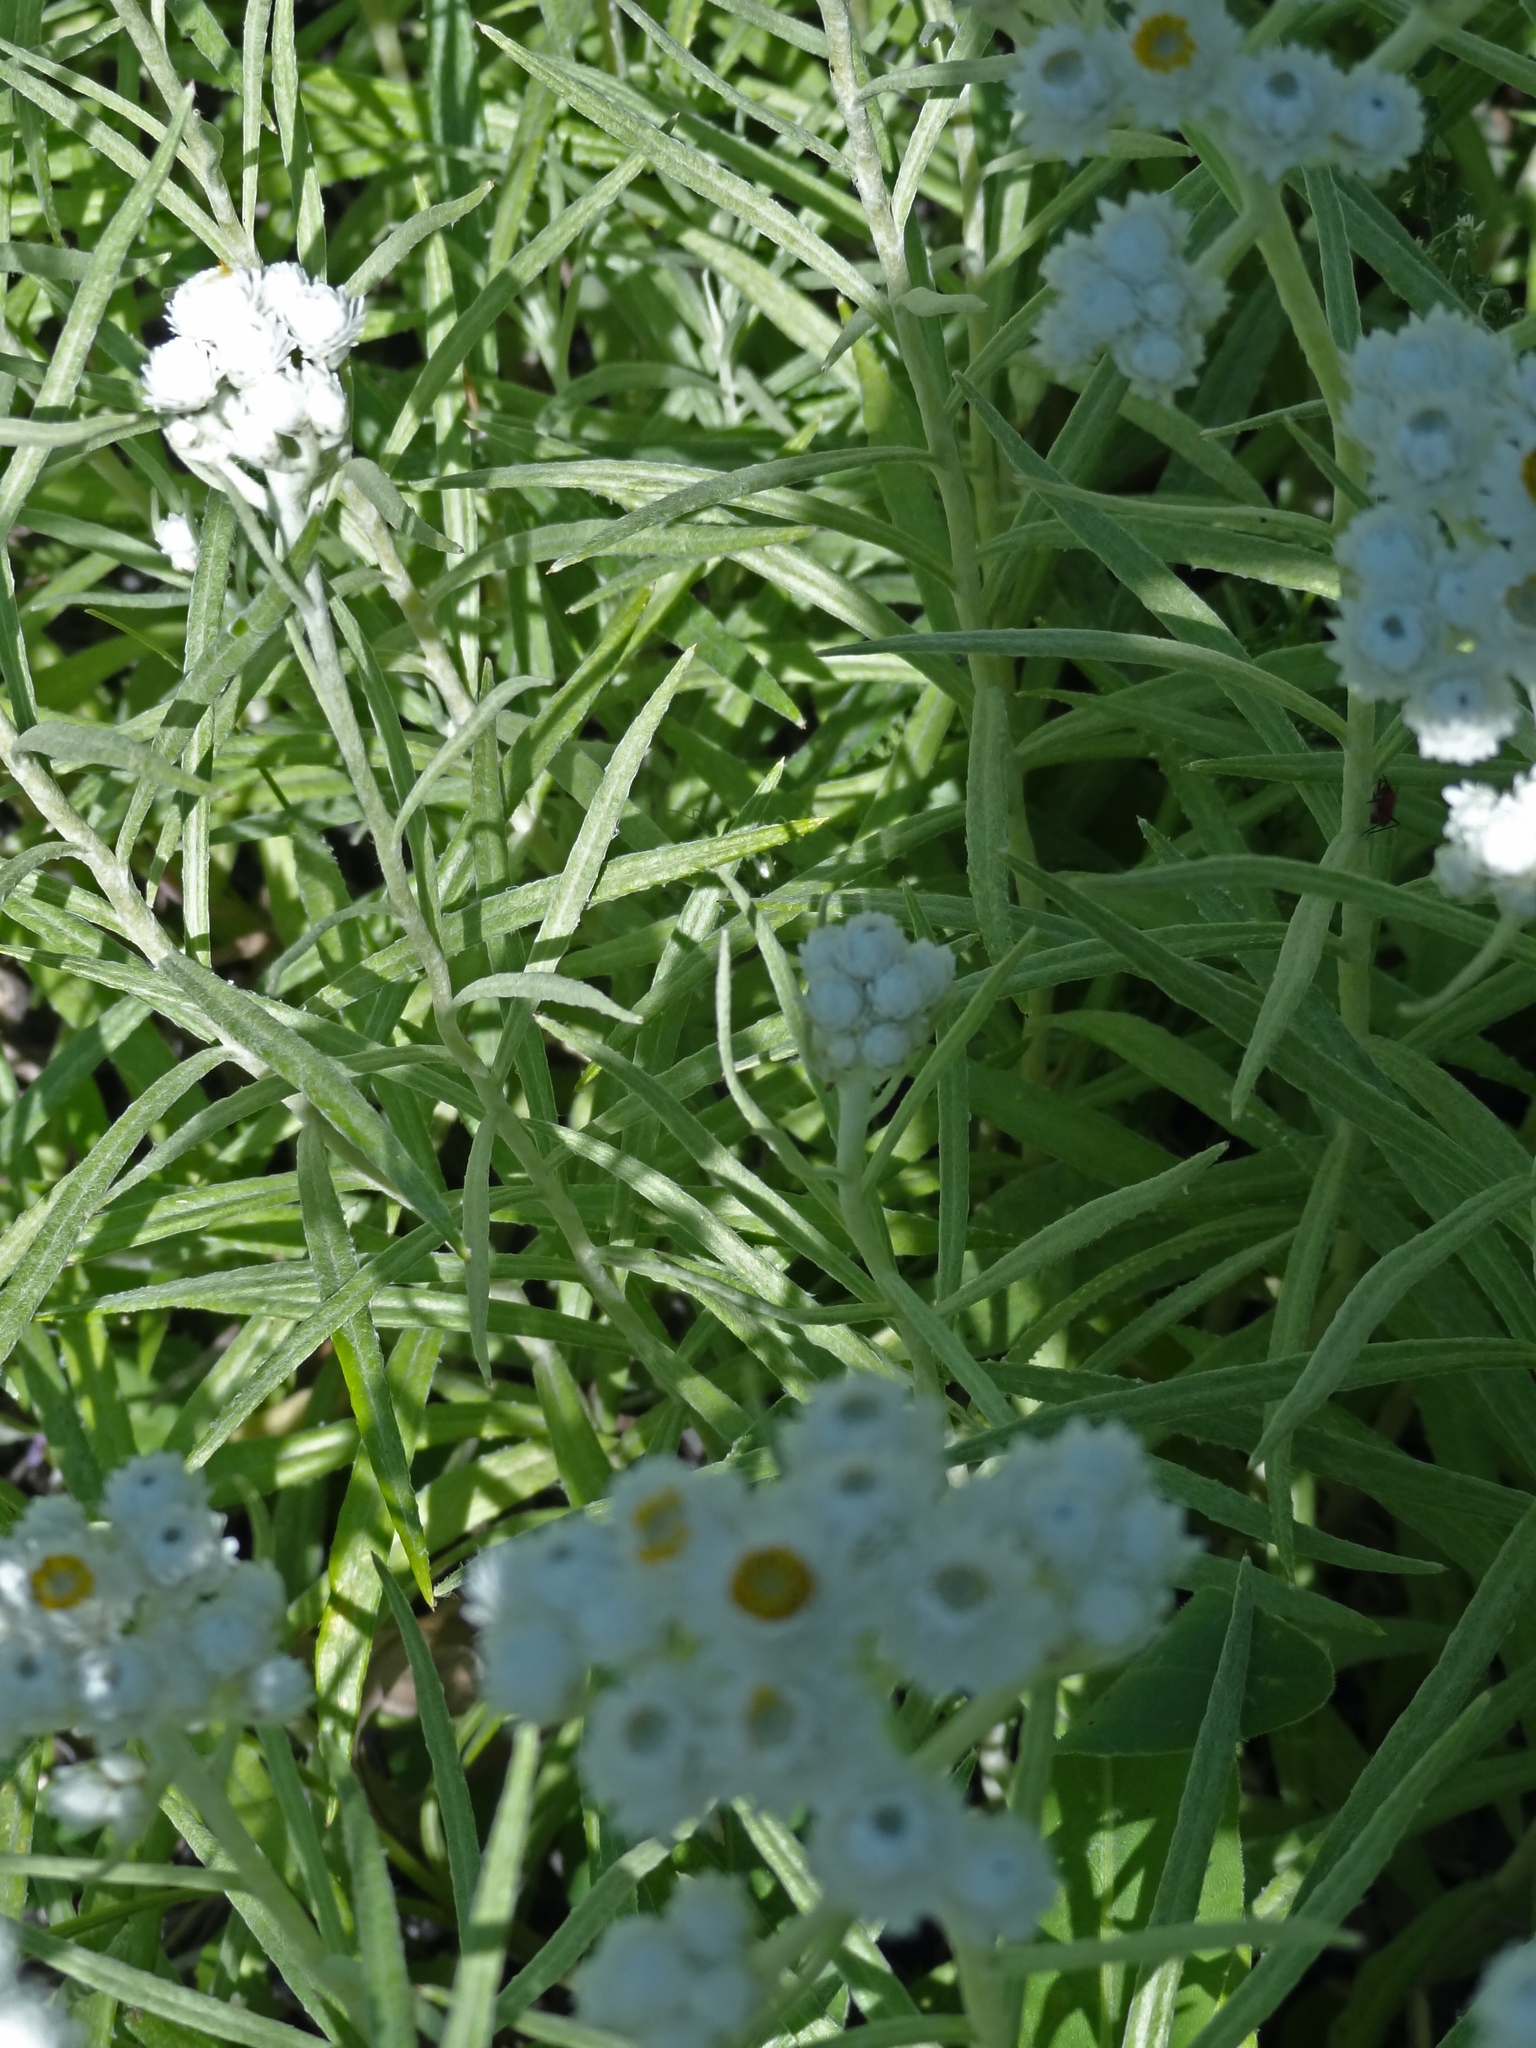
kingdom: Plantae
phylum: Tracheophyta
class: Magnoliopsida
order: Asterales
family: Asteraceae
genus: Anaphalis
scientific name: Anaphalis margaritacea
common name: Pearly everlasting
